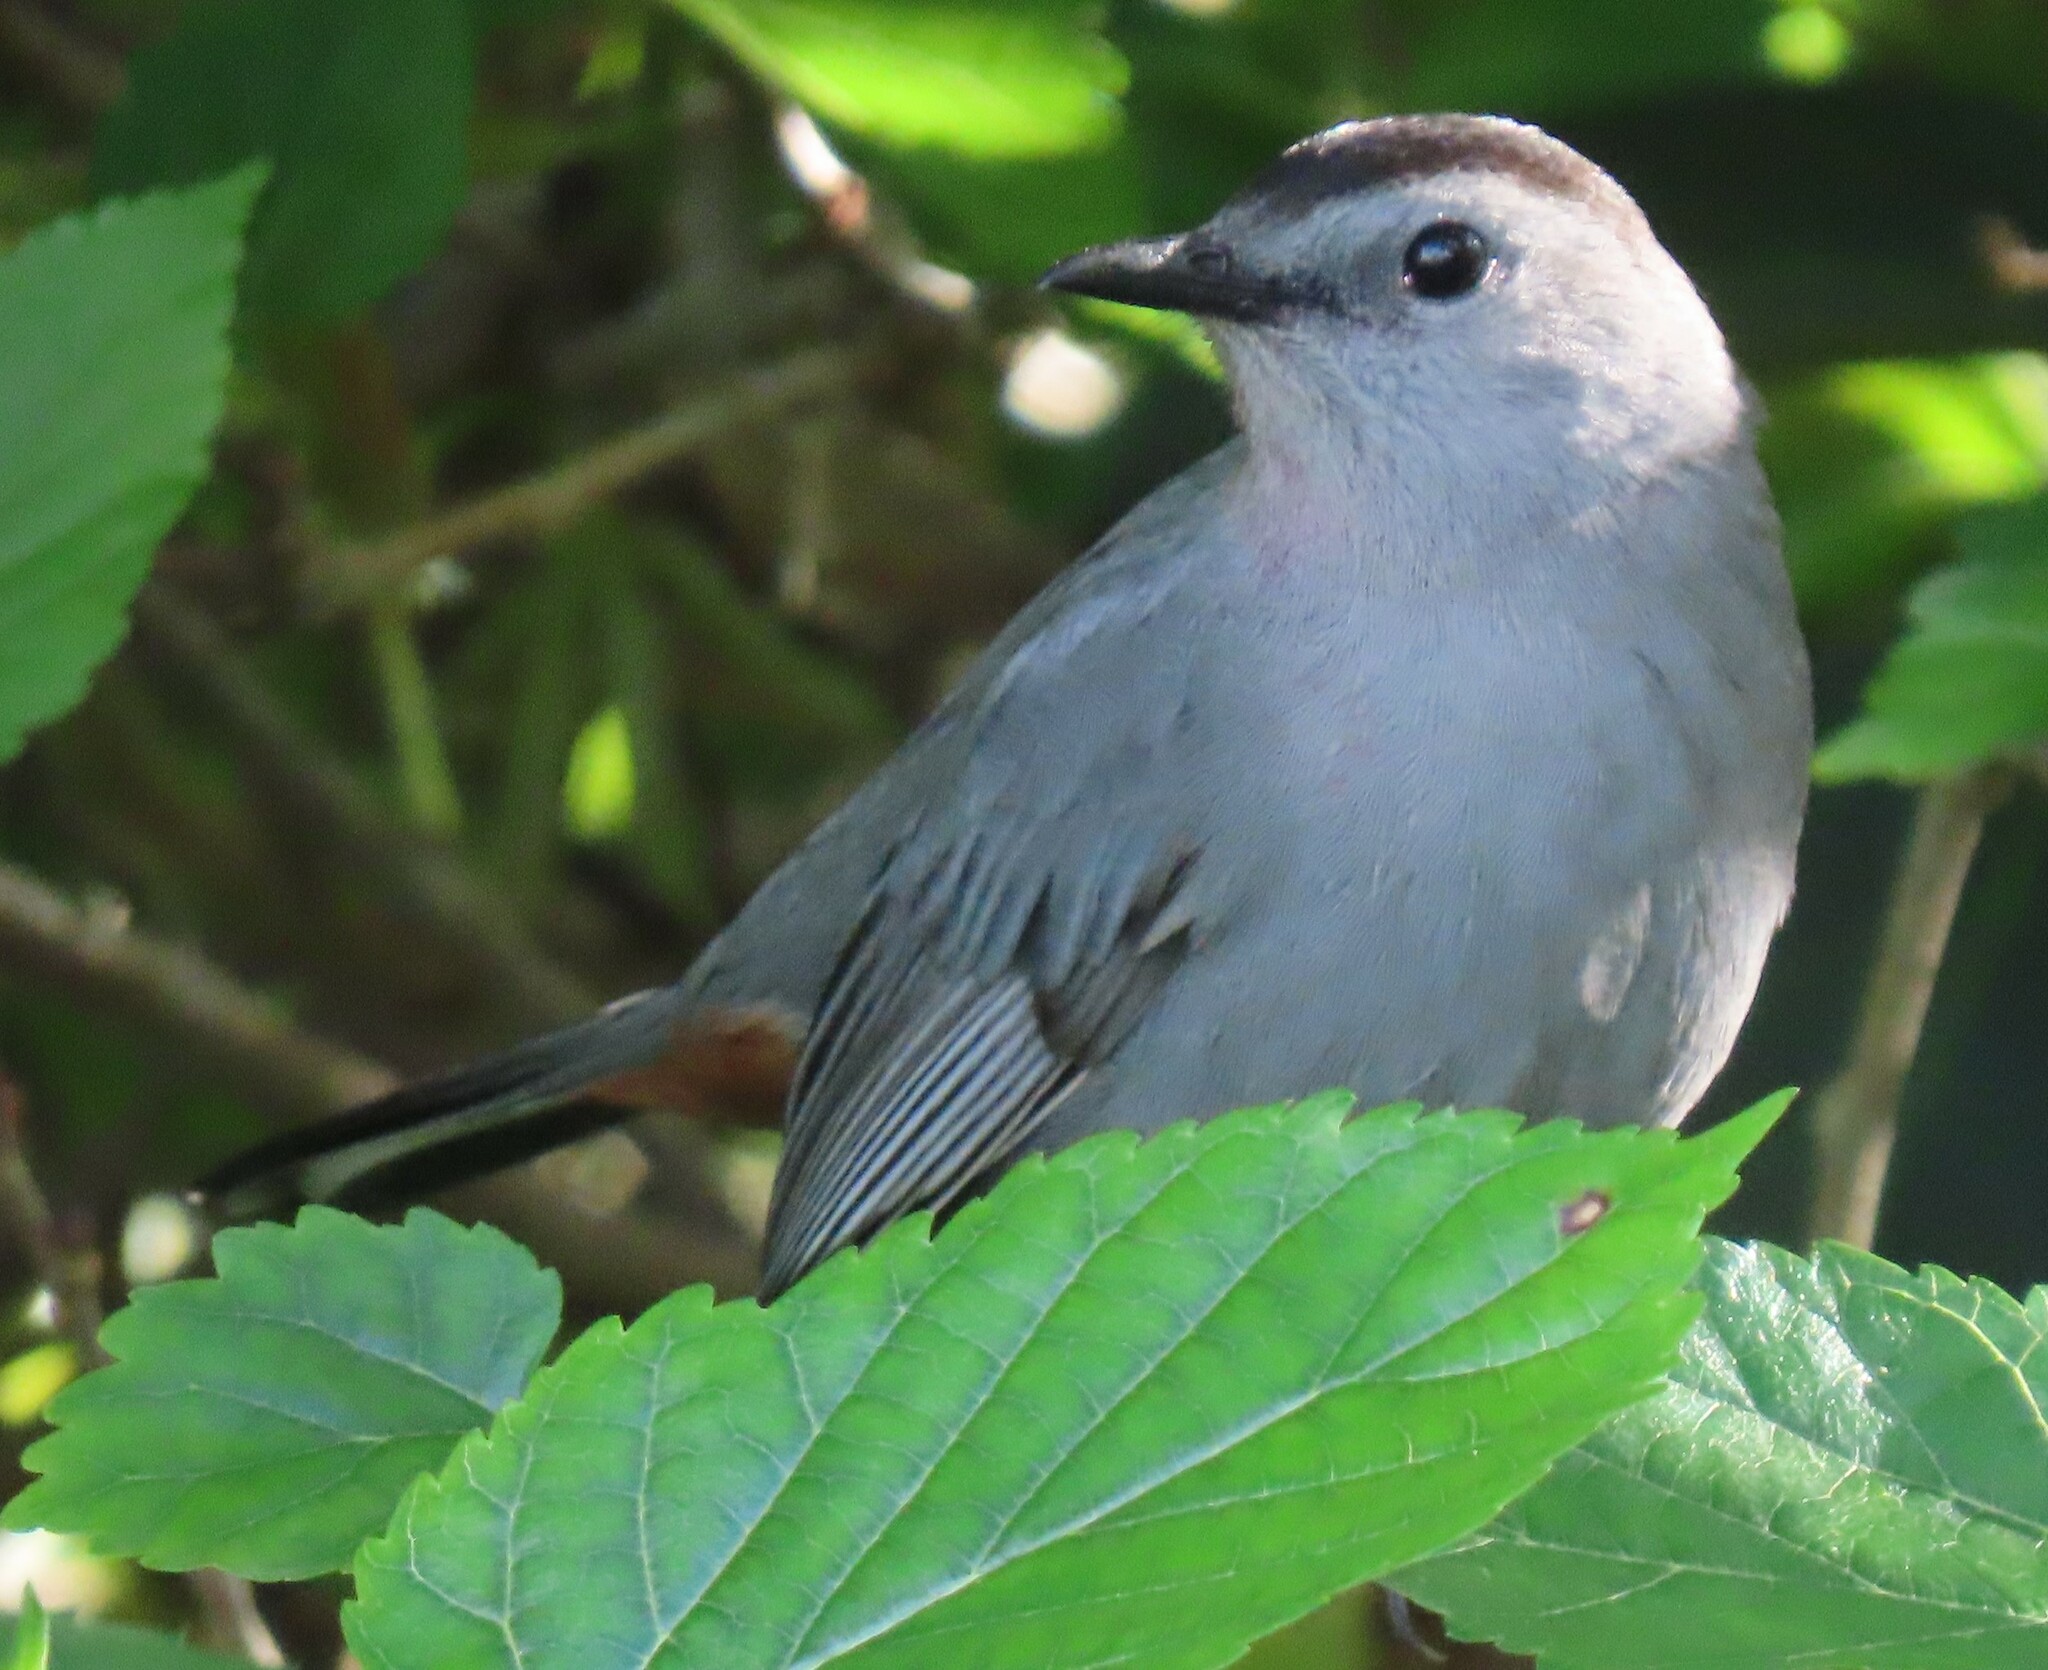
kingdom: Animalia
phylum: Chordata
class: Aves
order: Passeriformes
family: Mimidae
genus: Dumetella
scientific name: Dumetella carolinensis
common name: Gray catbird
